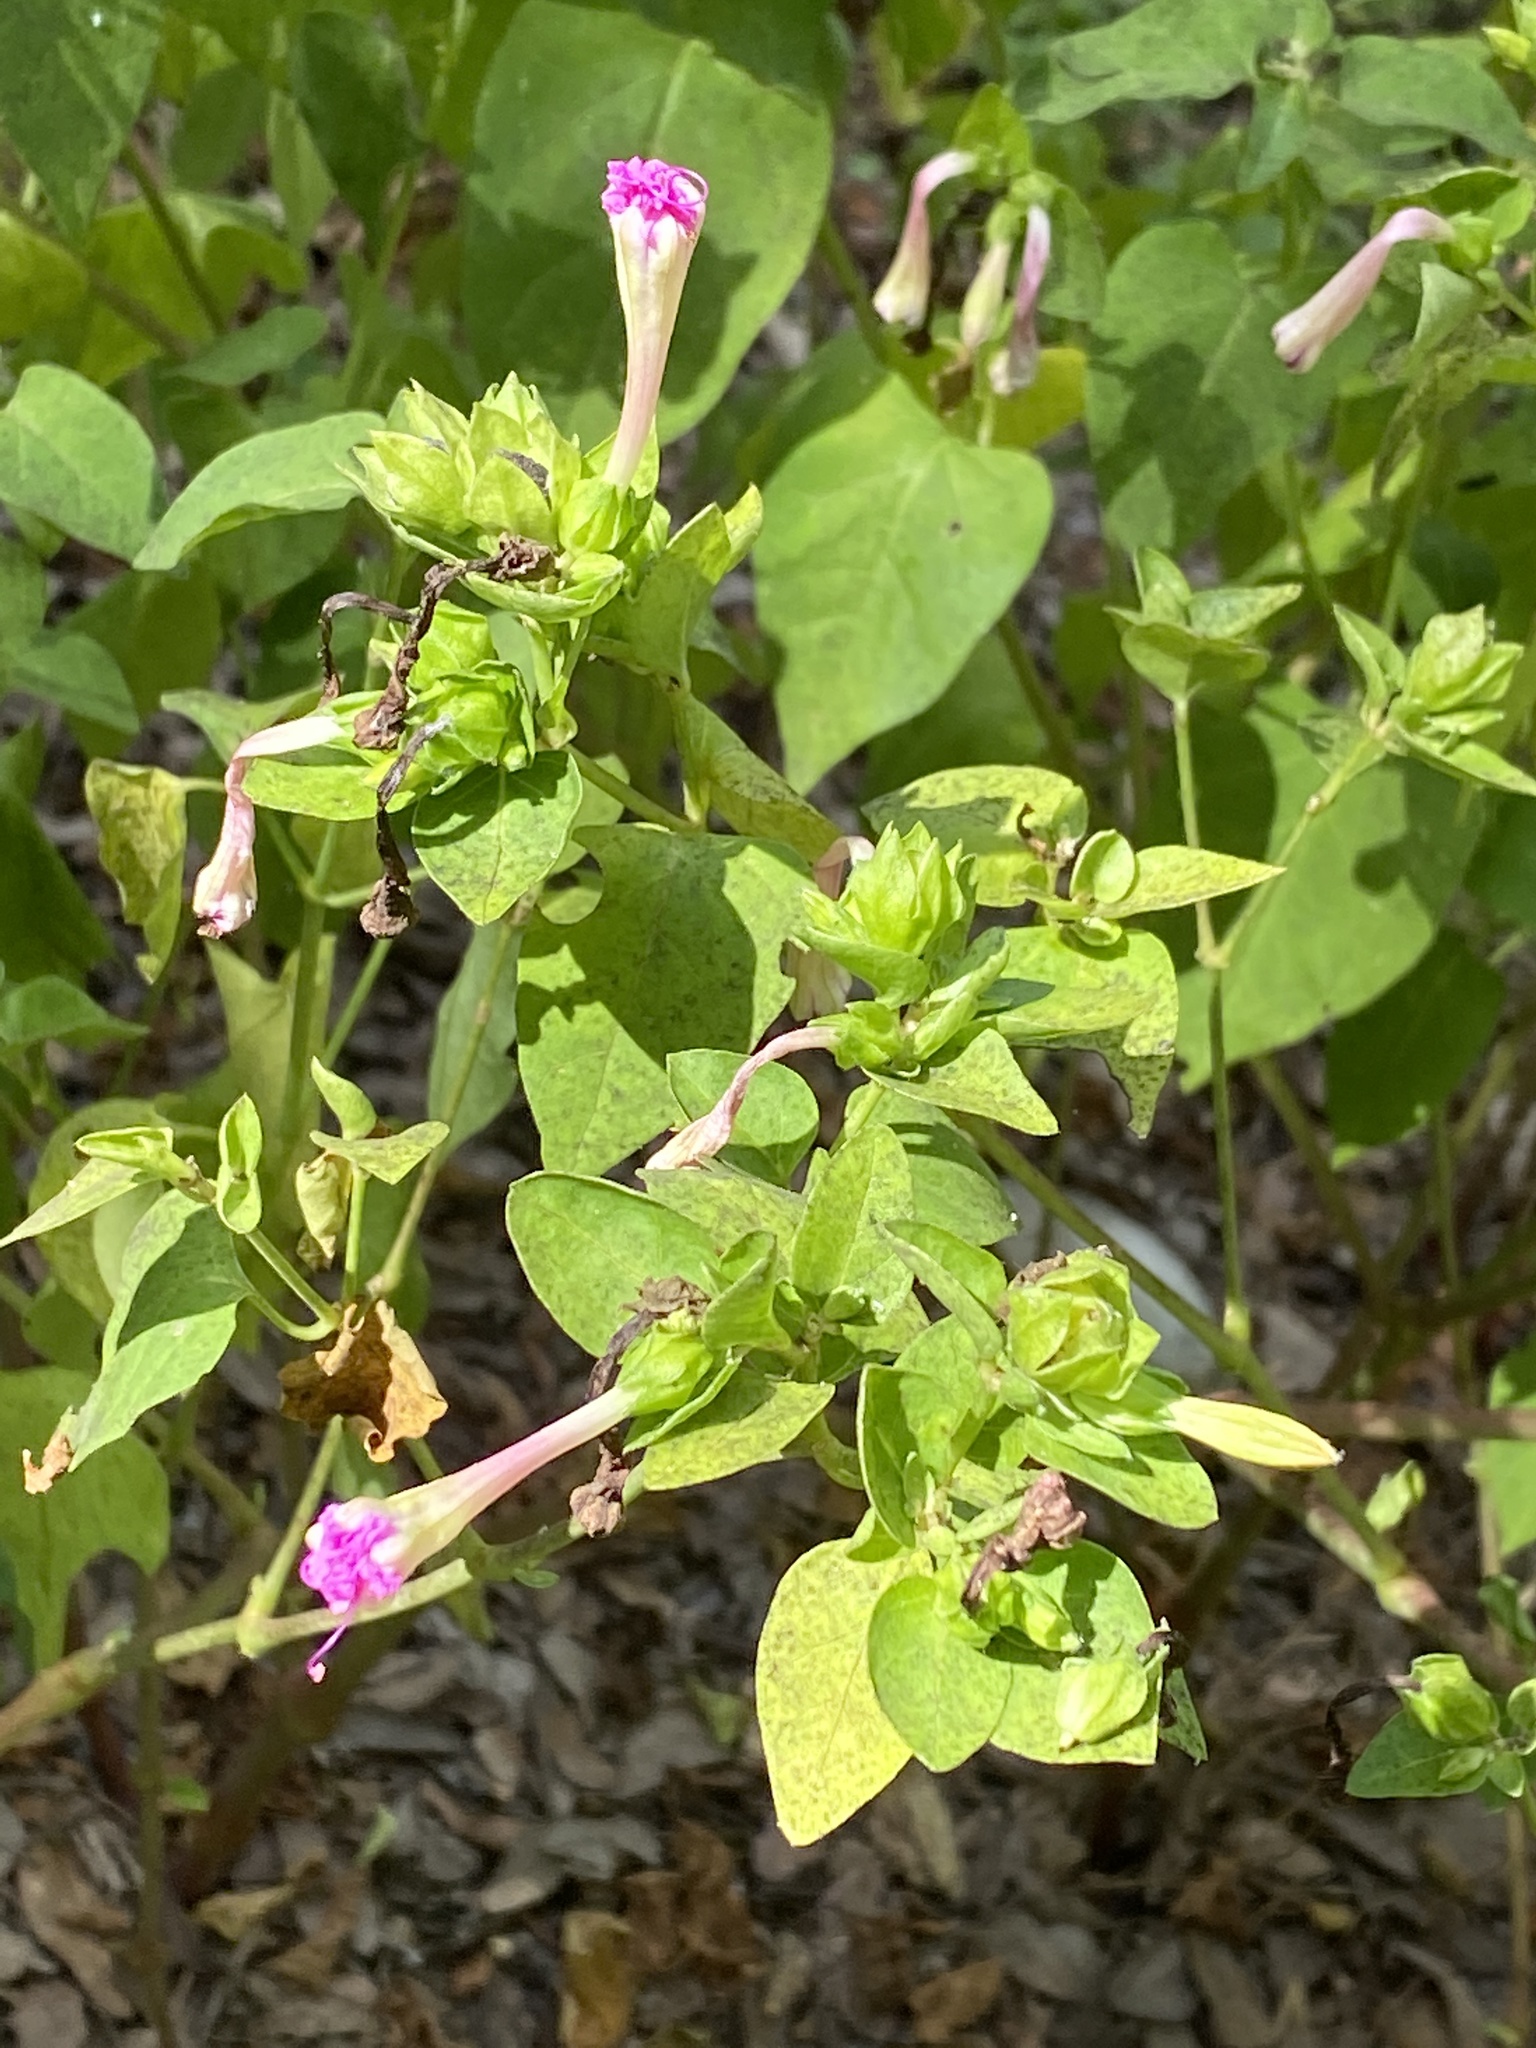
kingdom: Plantae
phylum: Tracheophyta
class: Magnoliopsida
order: Caryophyllales
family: Nyctaginaceae
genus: Mirabilis
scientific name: Mirabilis jalapa
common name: Marvel-of-peru
